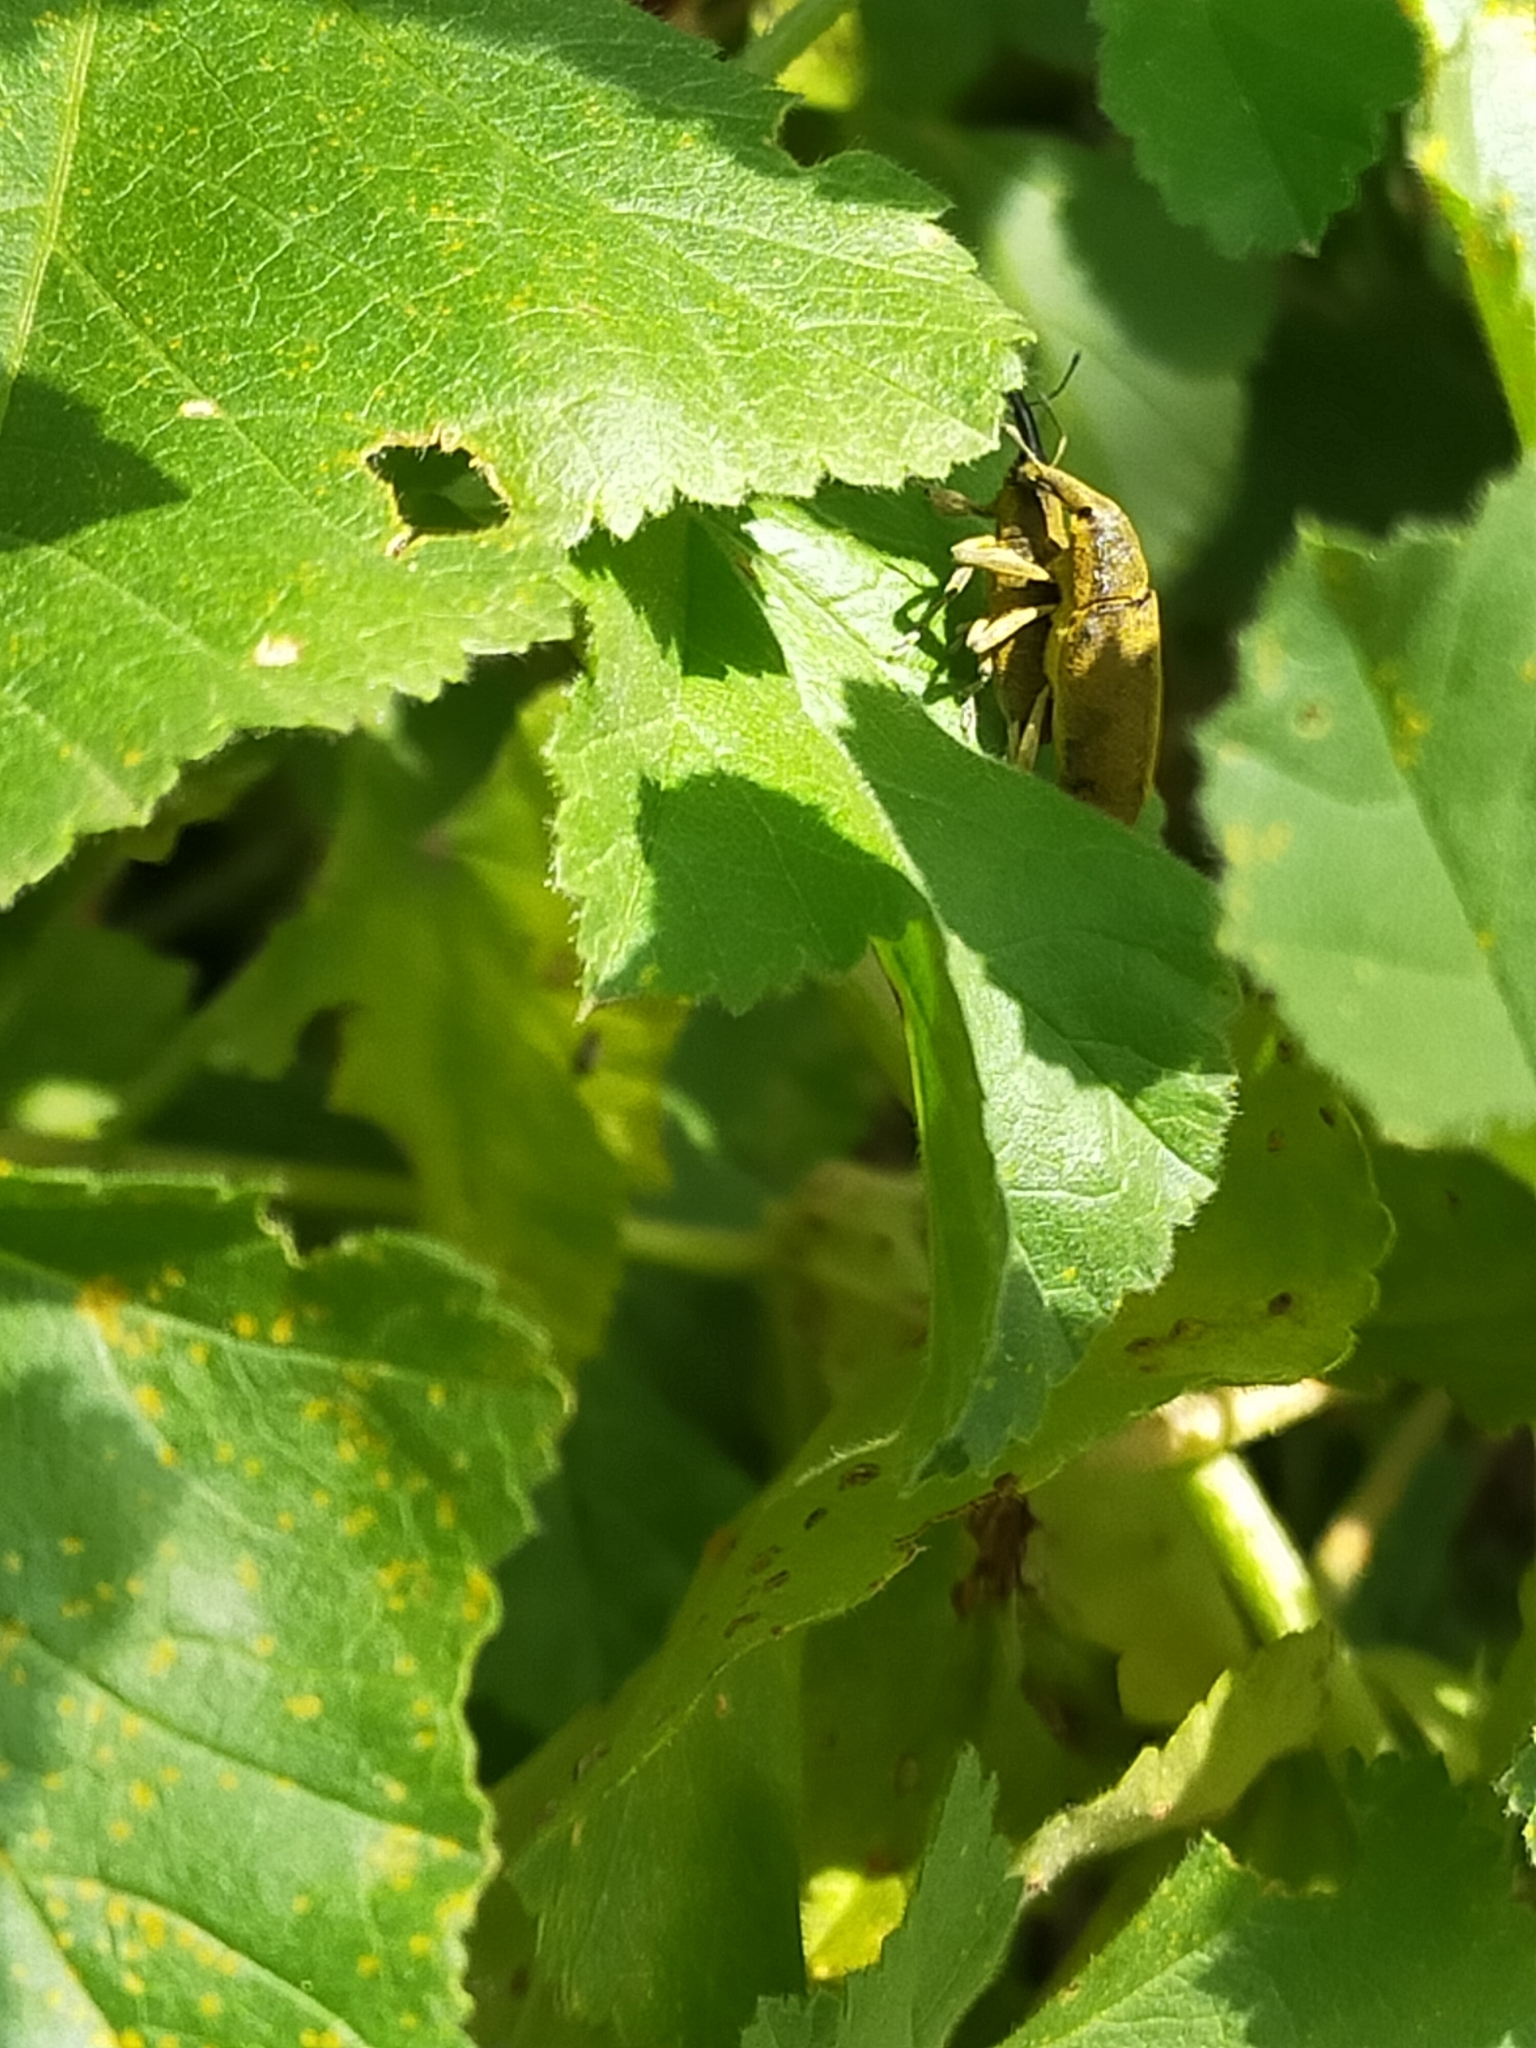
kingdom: Animalia
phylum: Arthropoda
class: Insecta
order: Coleoptera
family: Curculionidae
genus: Lixus
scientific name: Lixus pulverulentus
